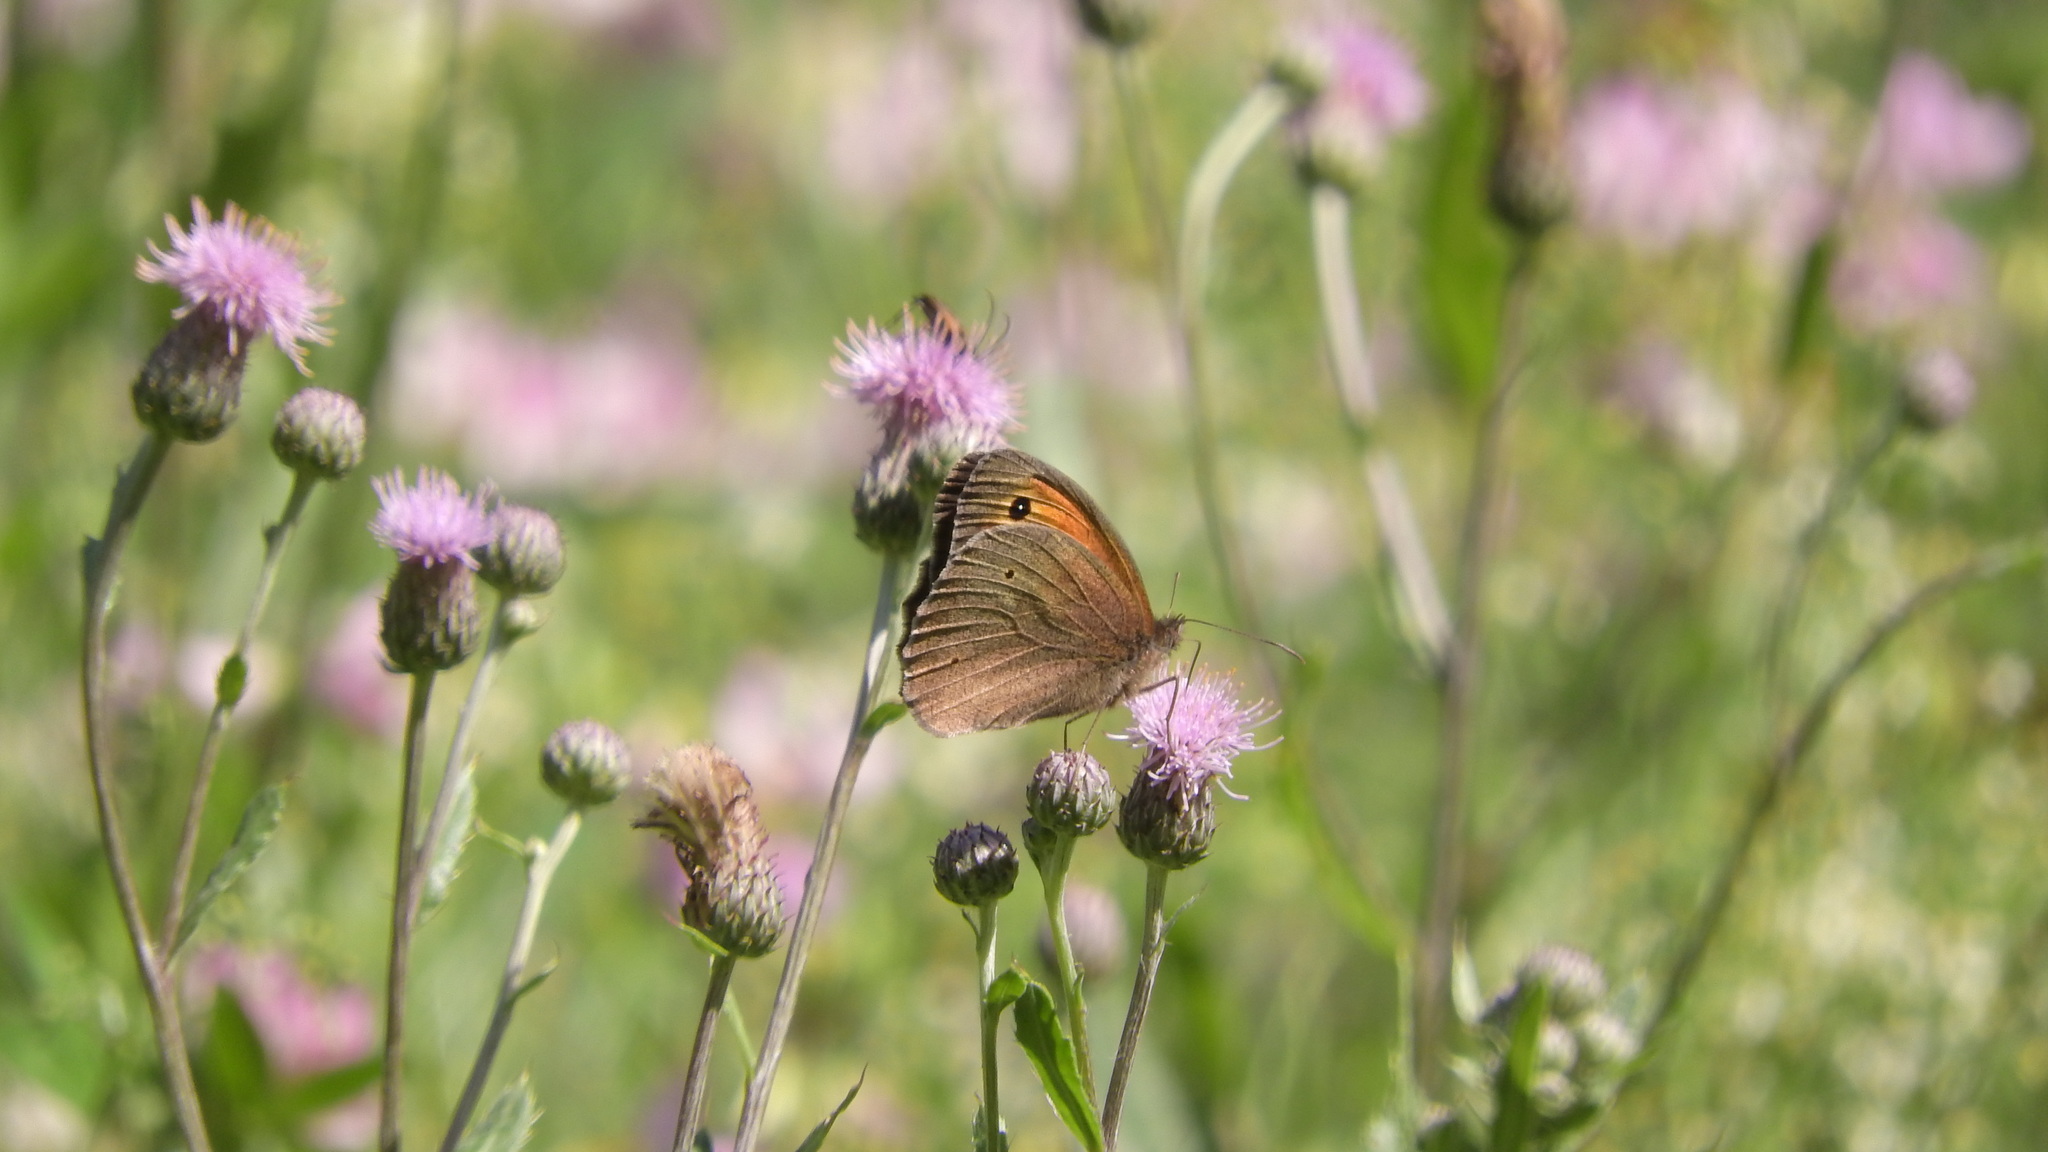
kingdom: Animalia
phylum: Arthropoda
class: Insecta
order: Lepidoptera
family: Nymphalidae
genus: Maniola
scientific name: Maniola jurtina
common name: Meadow brown
